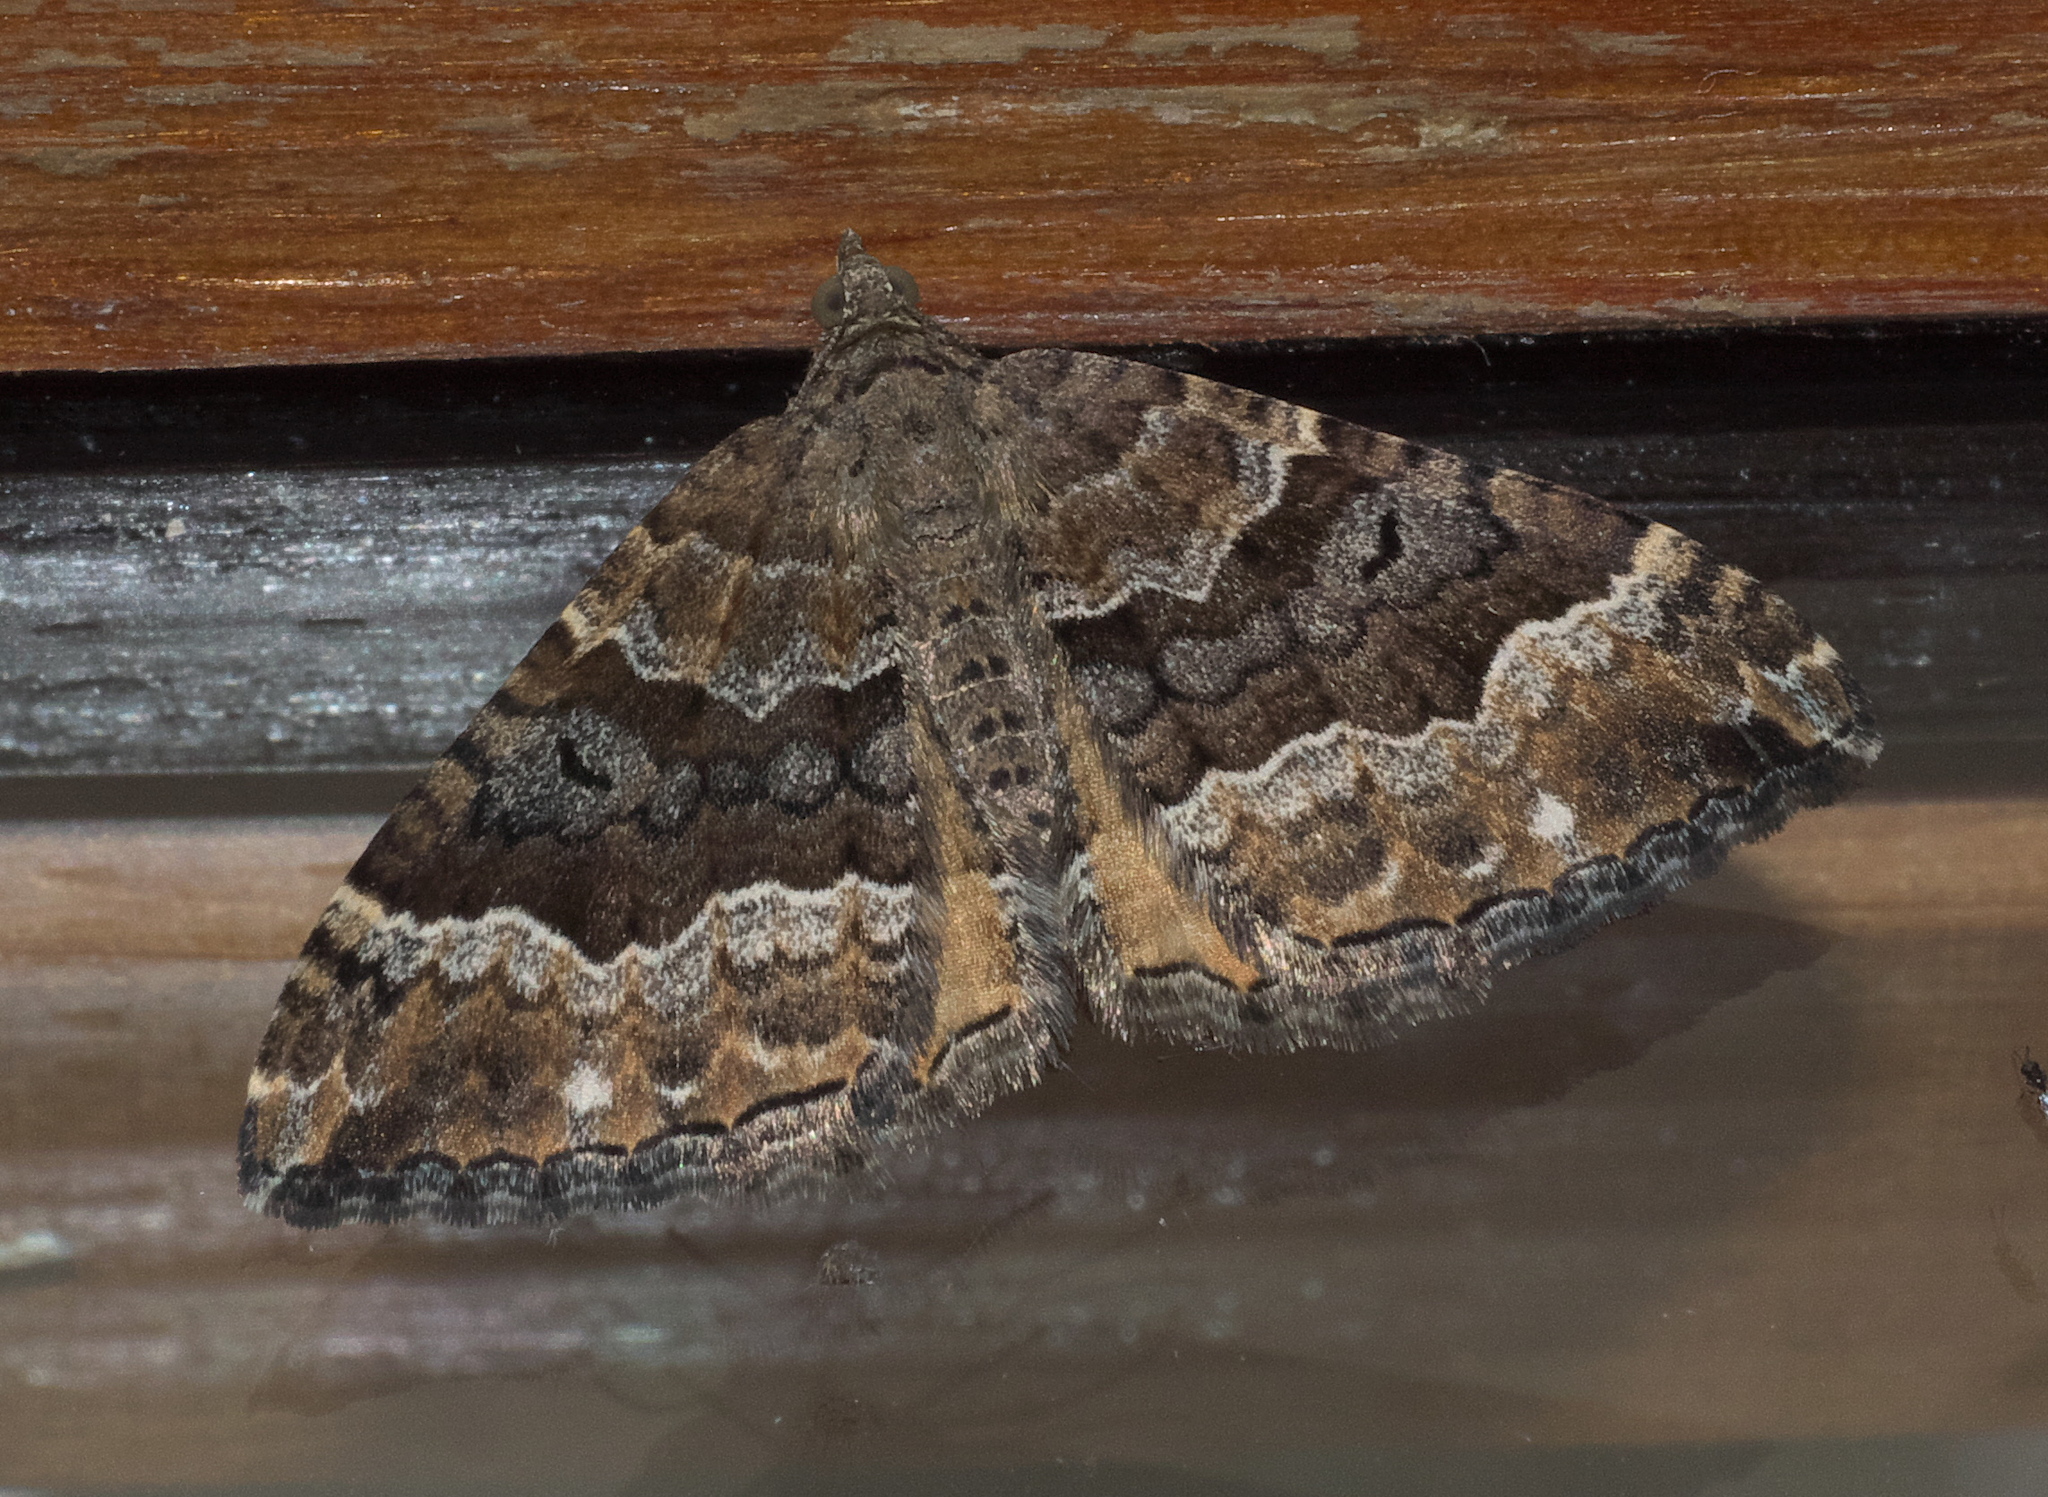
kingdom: Animalia
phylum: Arthropoda
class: Insecta
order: Lepidoptera
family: Geometridae
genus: Hydriomena
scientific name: Hydriomena deltoidata
